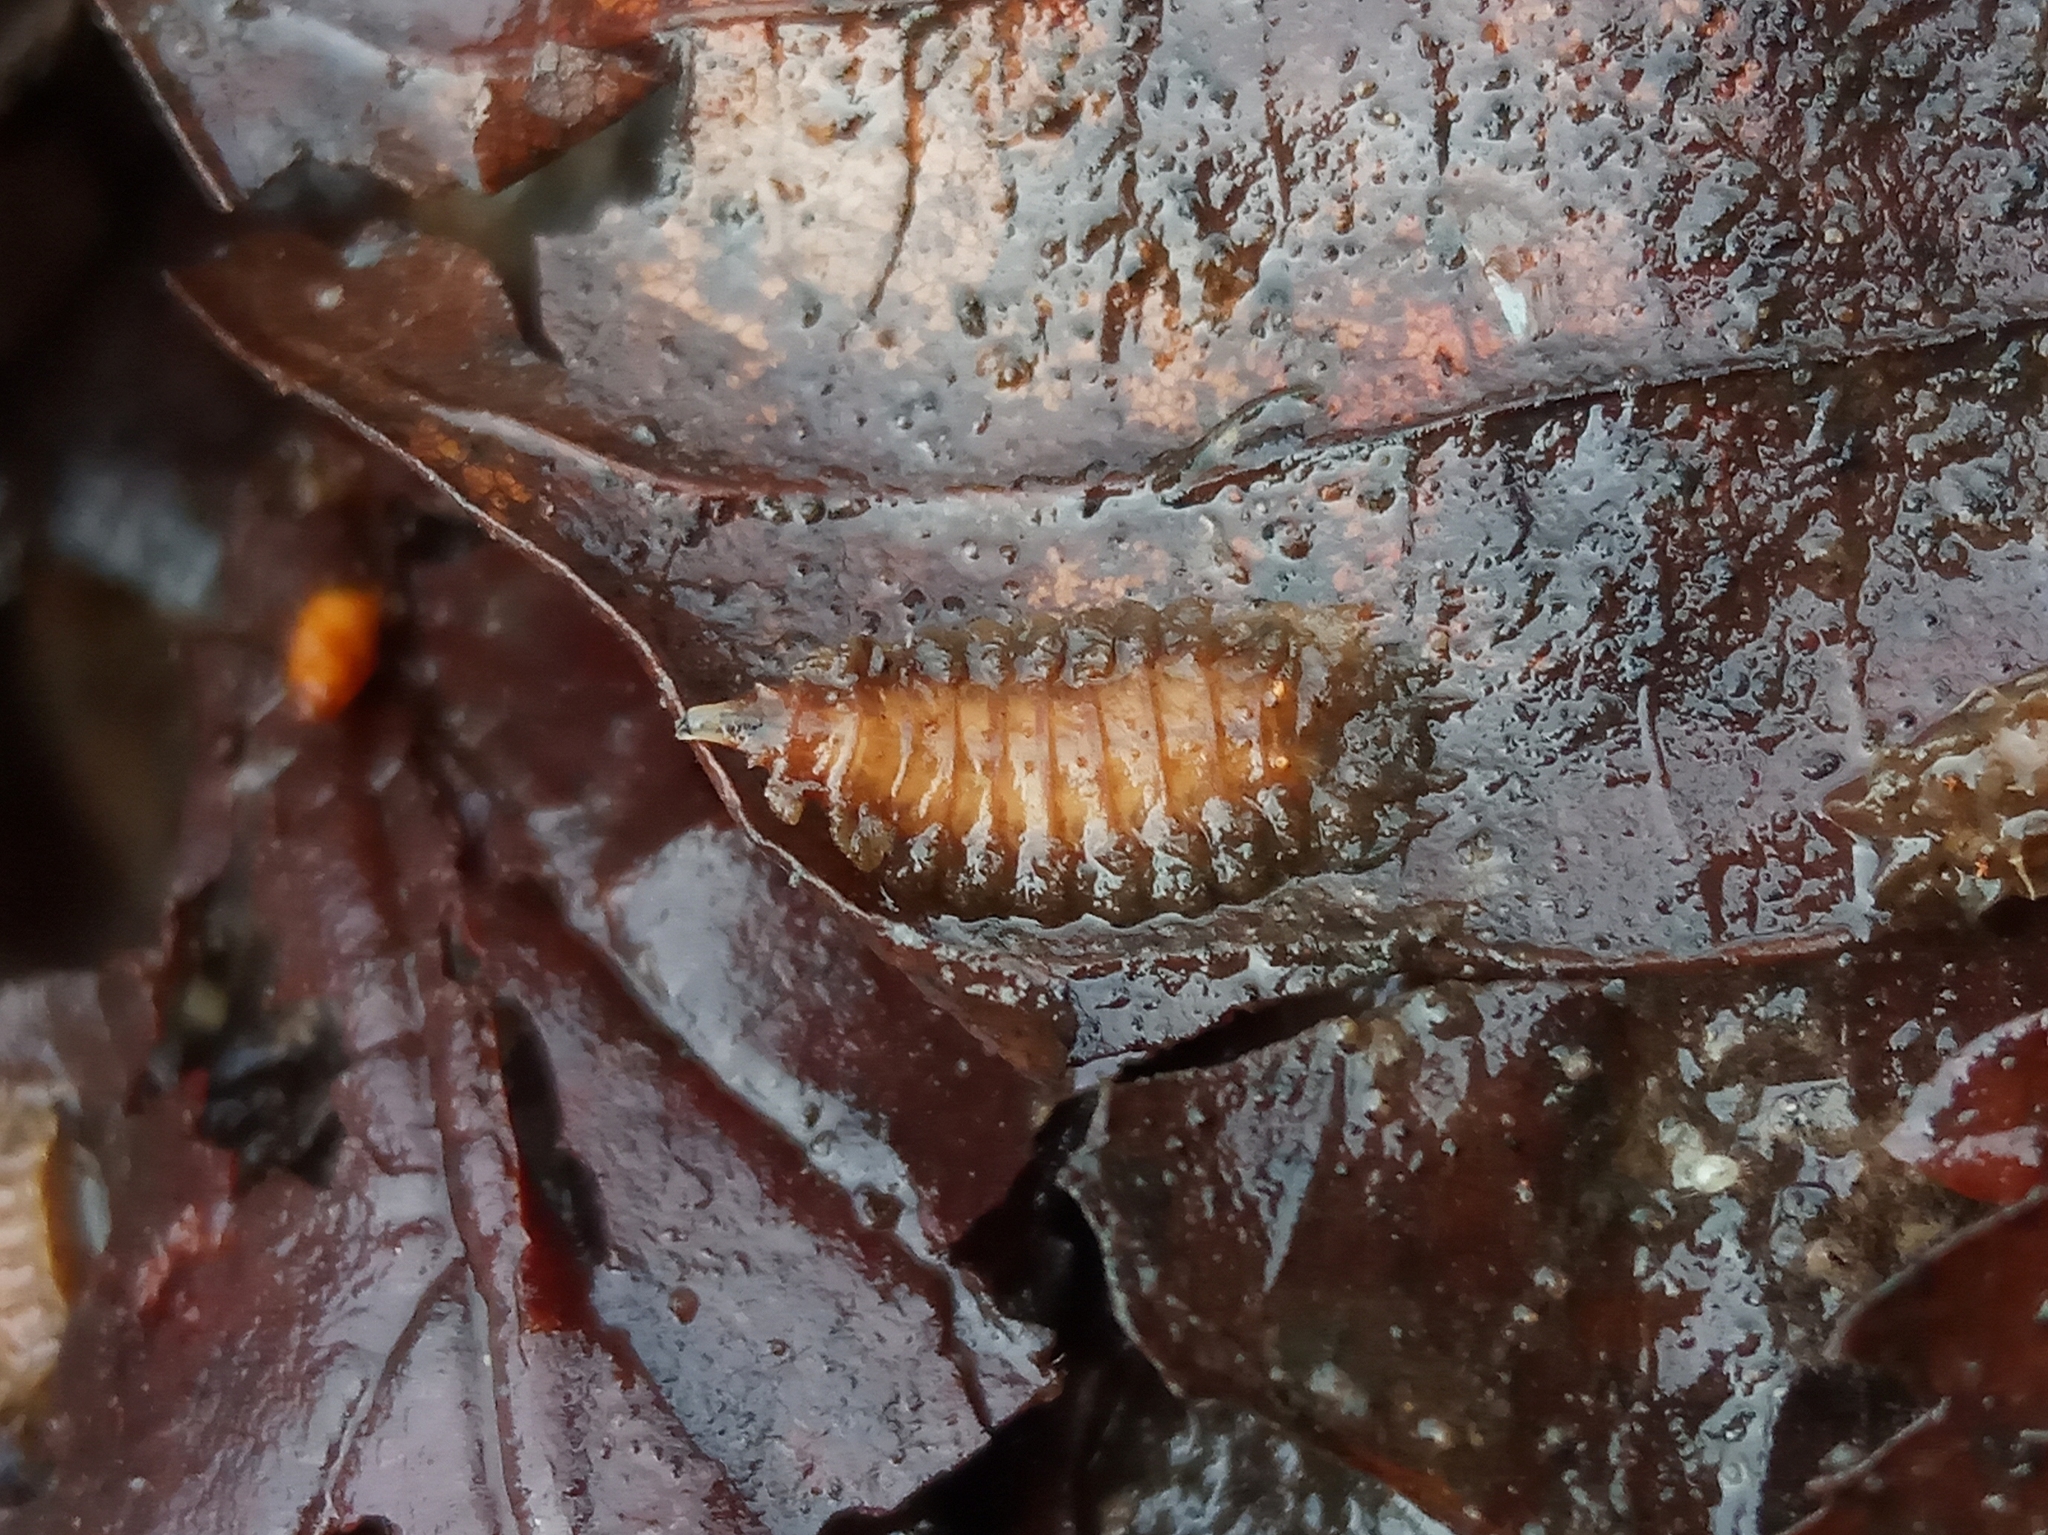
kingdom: Animalia
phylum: Arthropoda
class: Insecta
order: Diptera
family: Fanniidae
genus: Fannia
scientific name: Fannia
